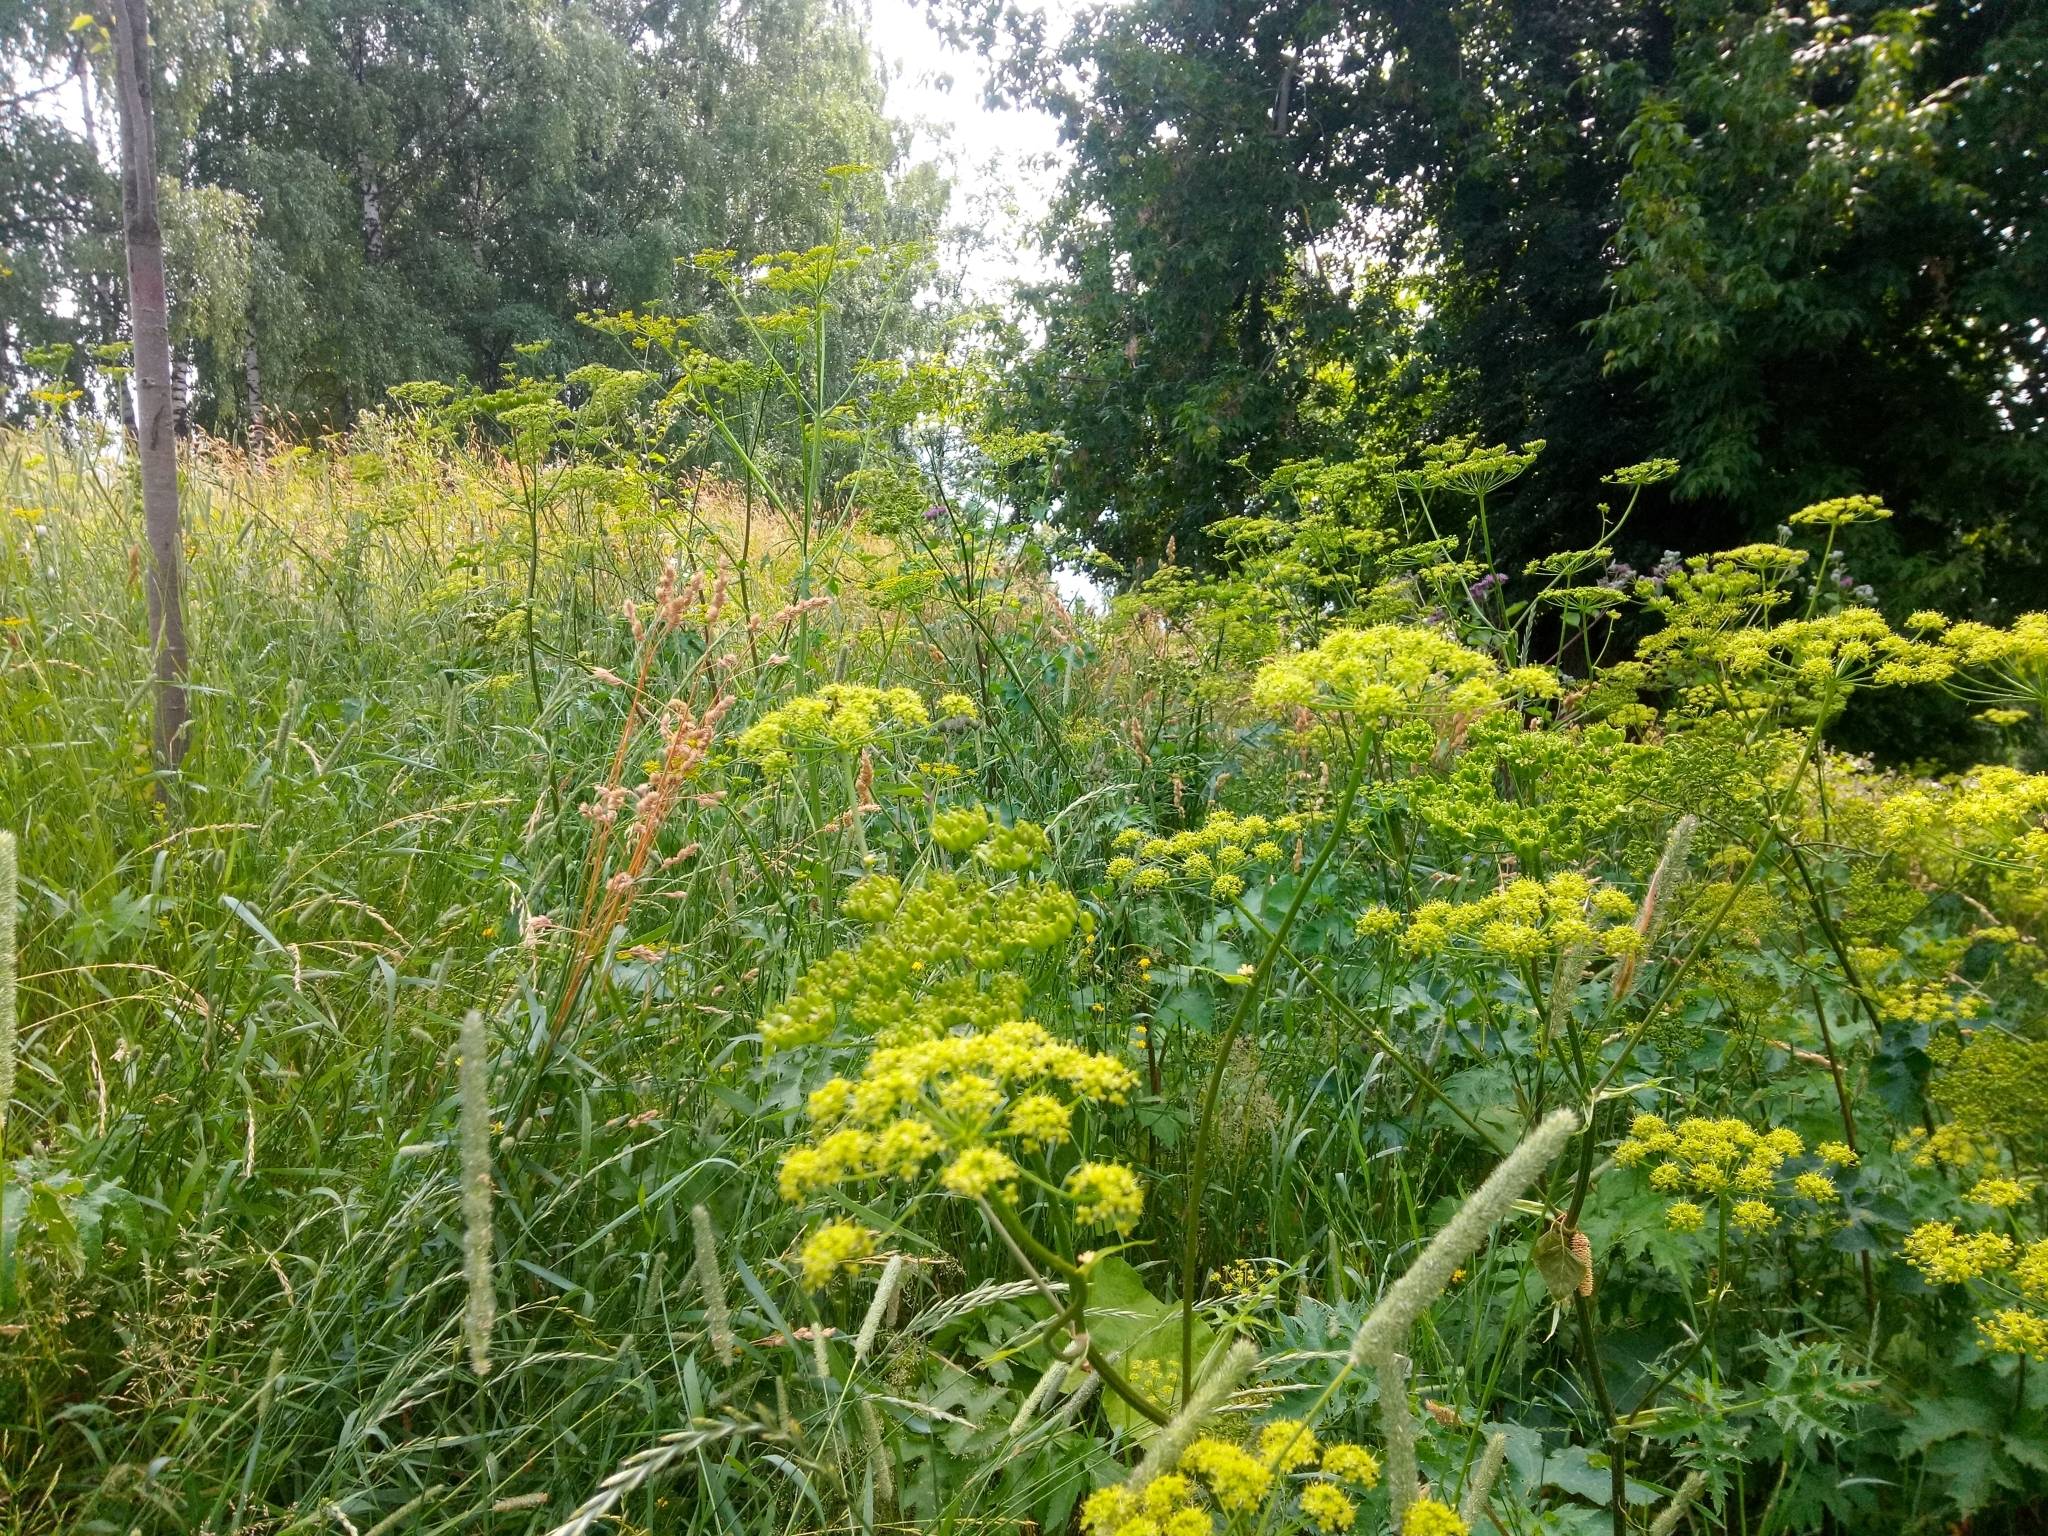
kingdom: Plantae
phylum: Tracheophyta
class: Magnoliopsida
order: Apiales
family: Apiaceae
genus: Heracleum
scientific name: Heracleum sphondylium
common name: Hogweed
